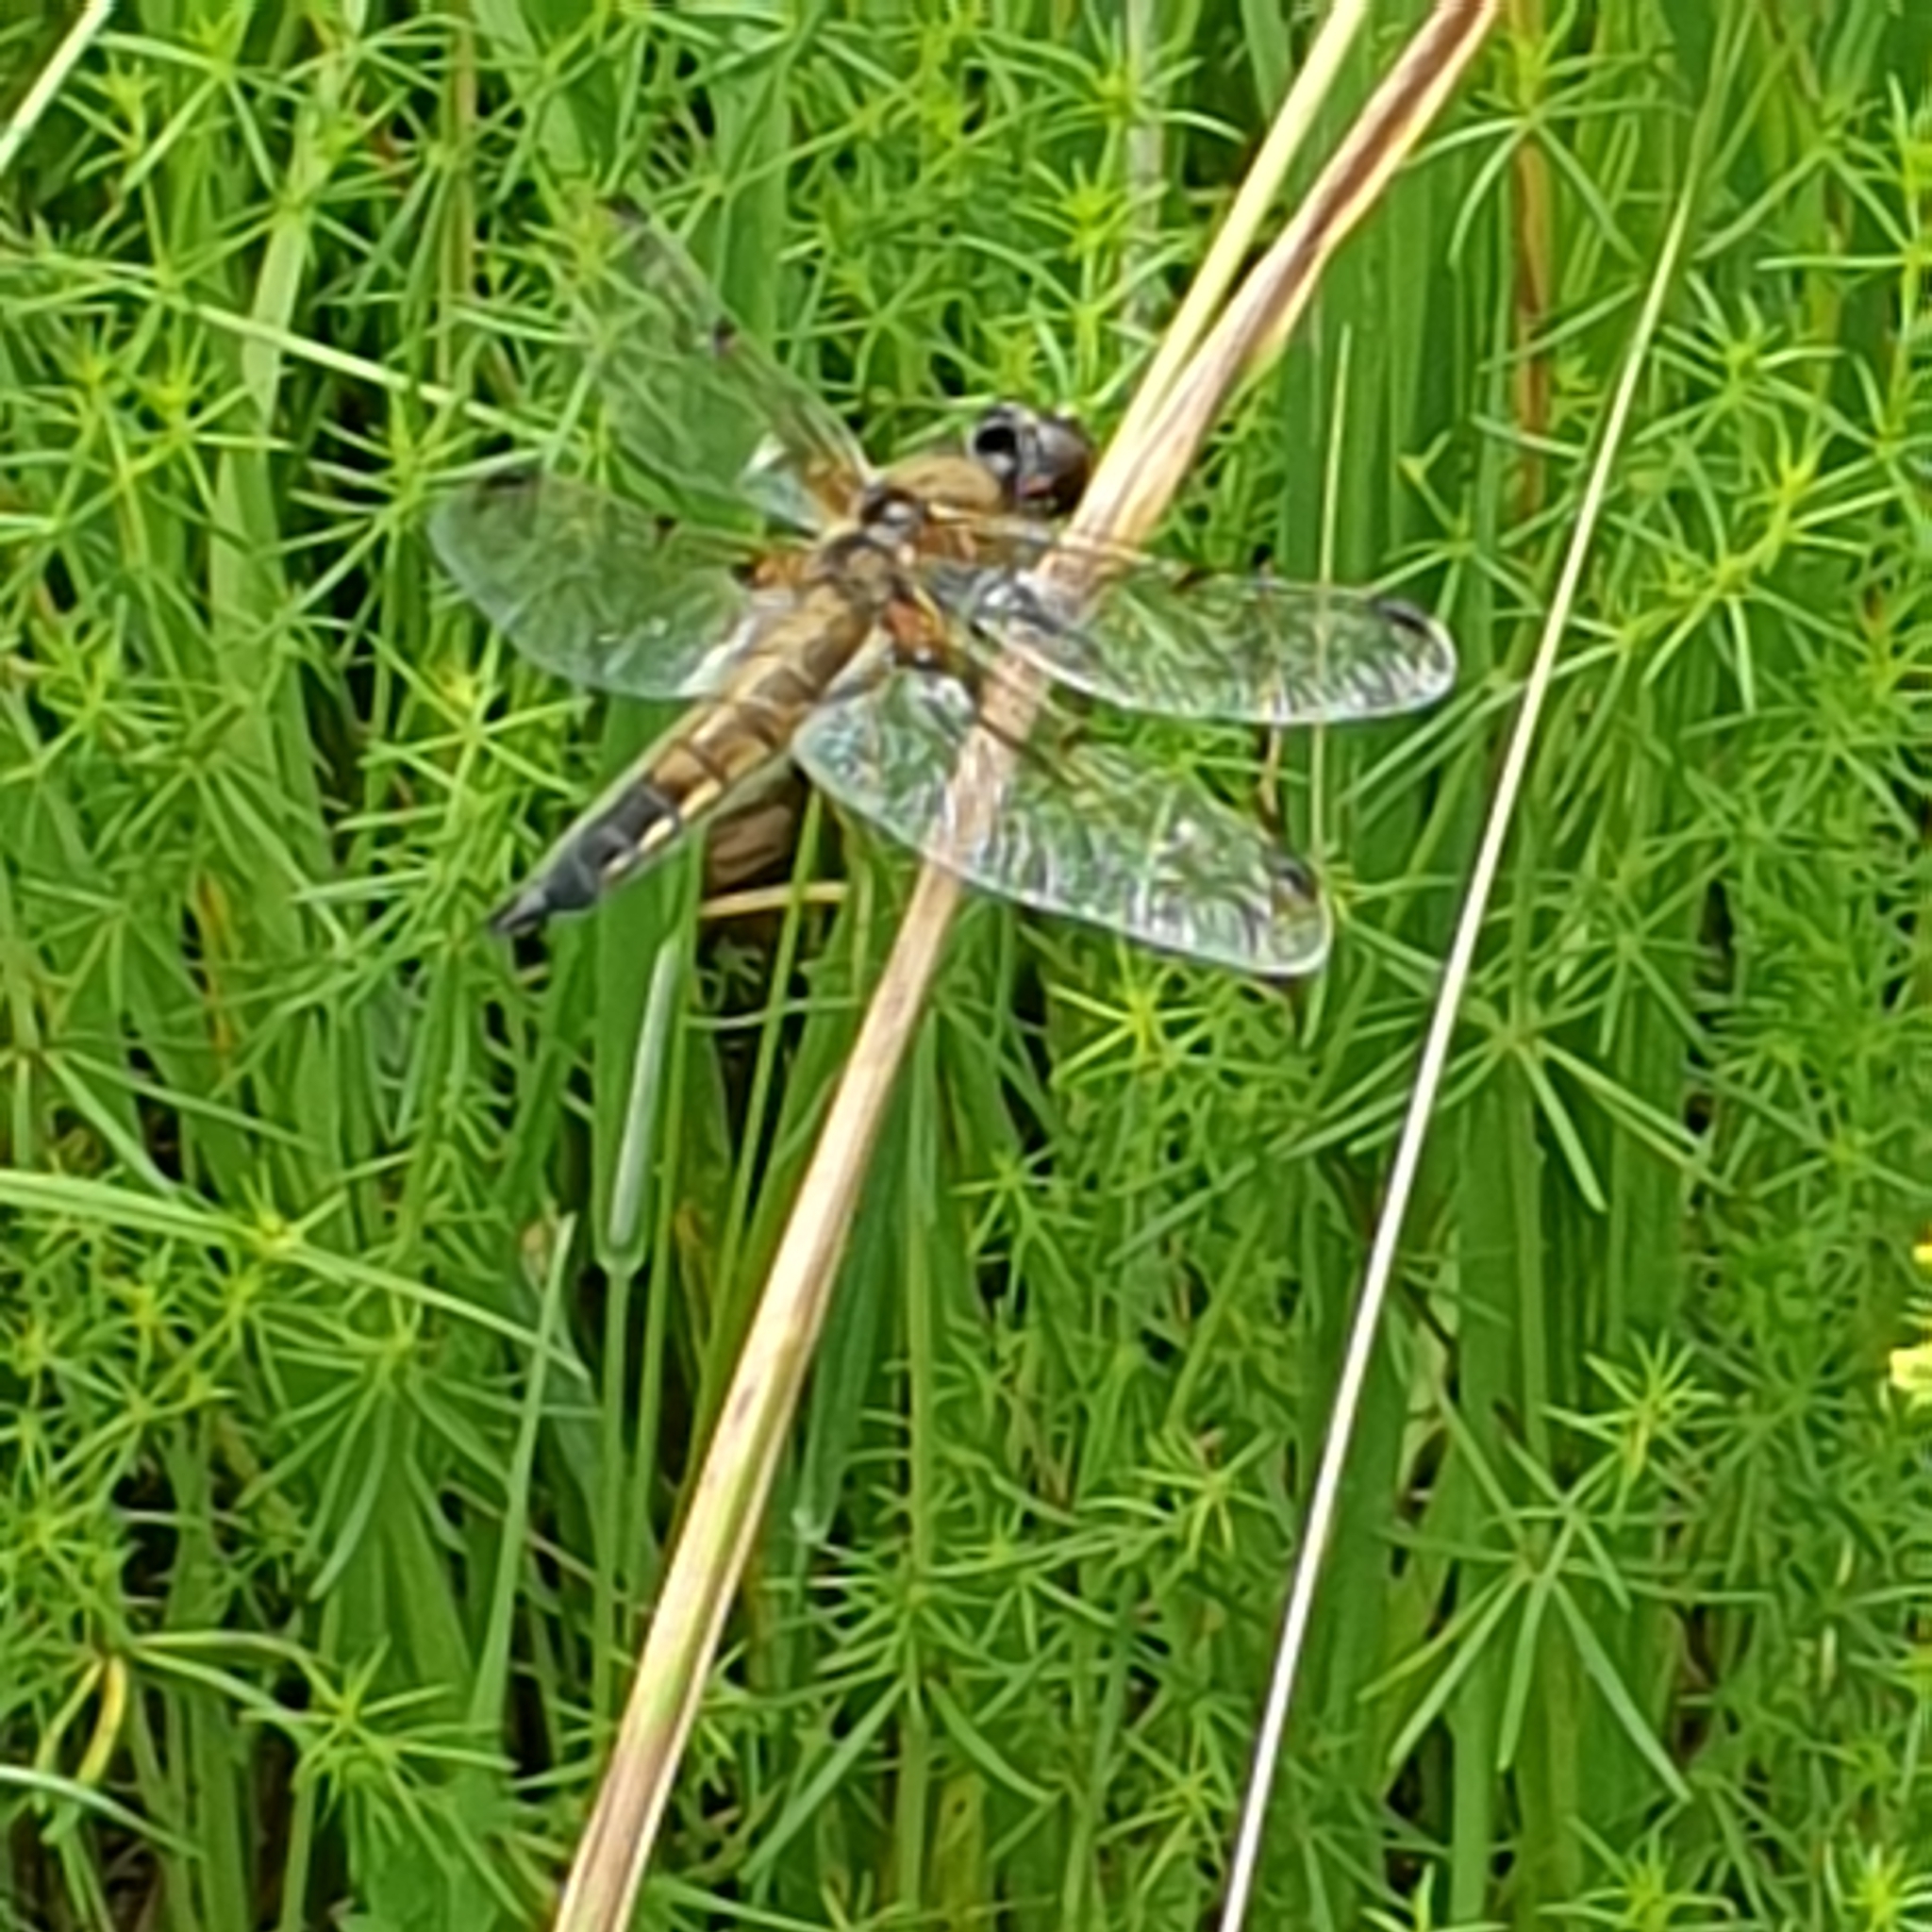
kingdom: Animalia
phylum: Arthropoda
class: Insecta
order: Odonata
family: Libellulidae
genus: Libellula
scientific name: Libellula quadrimaculata
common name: Four-spotted chaser
